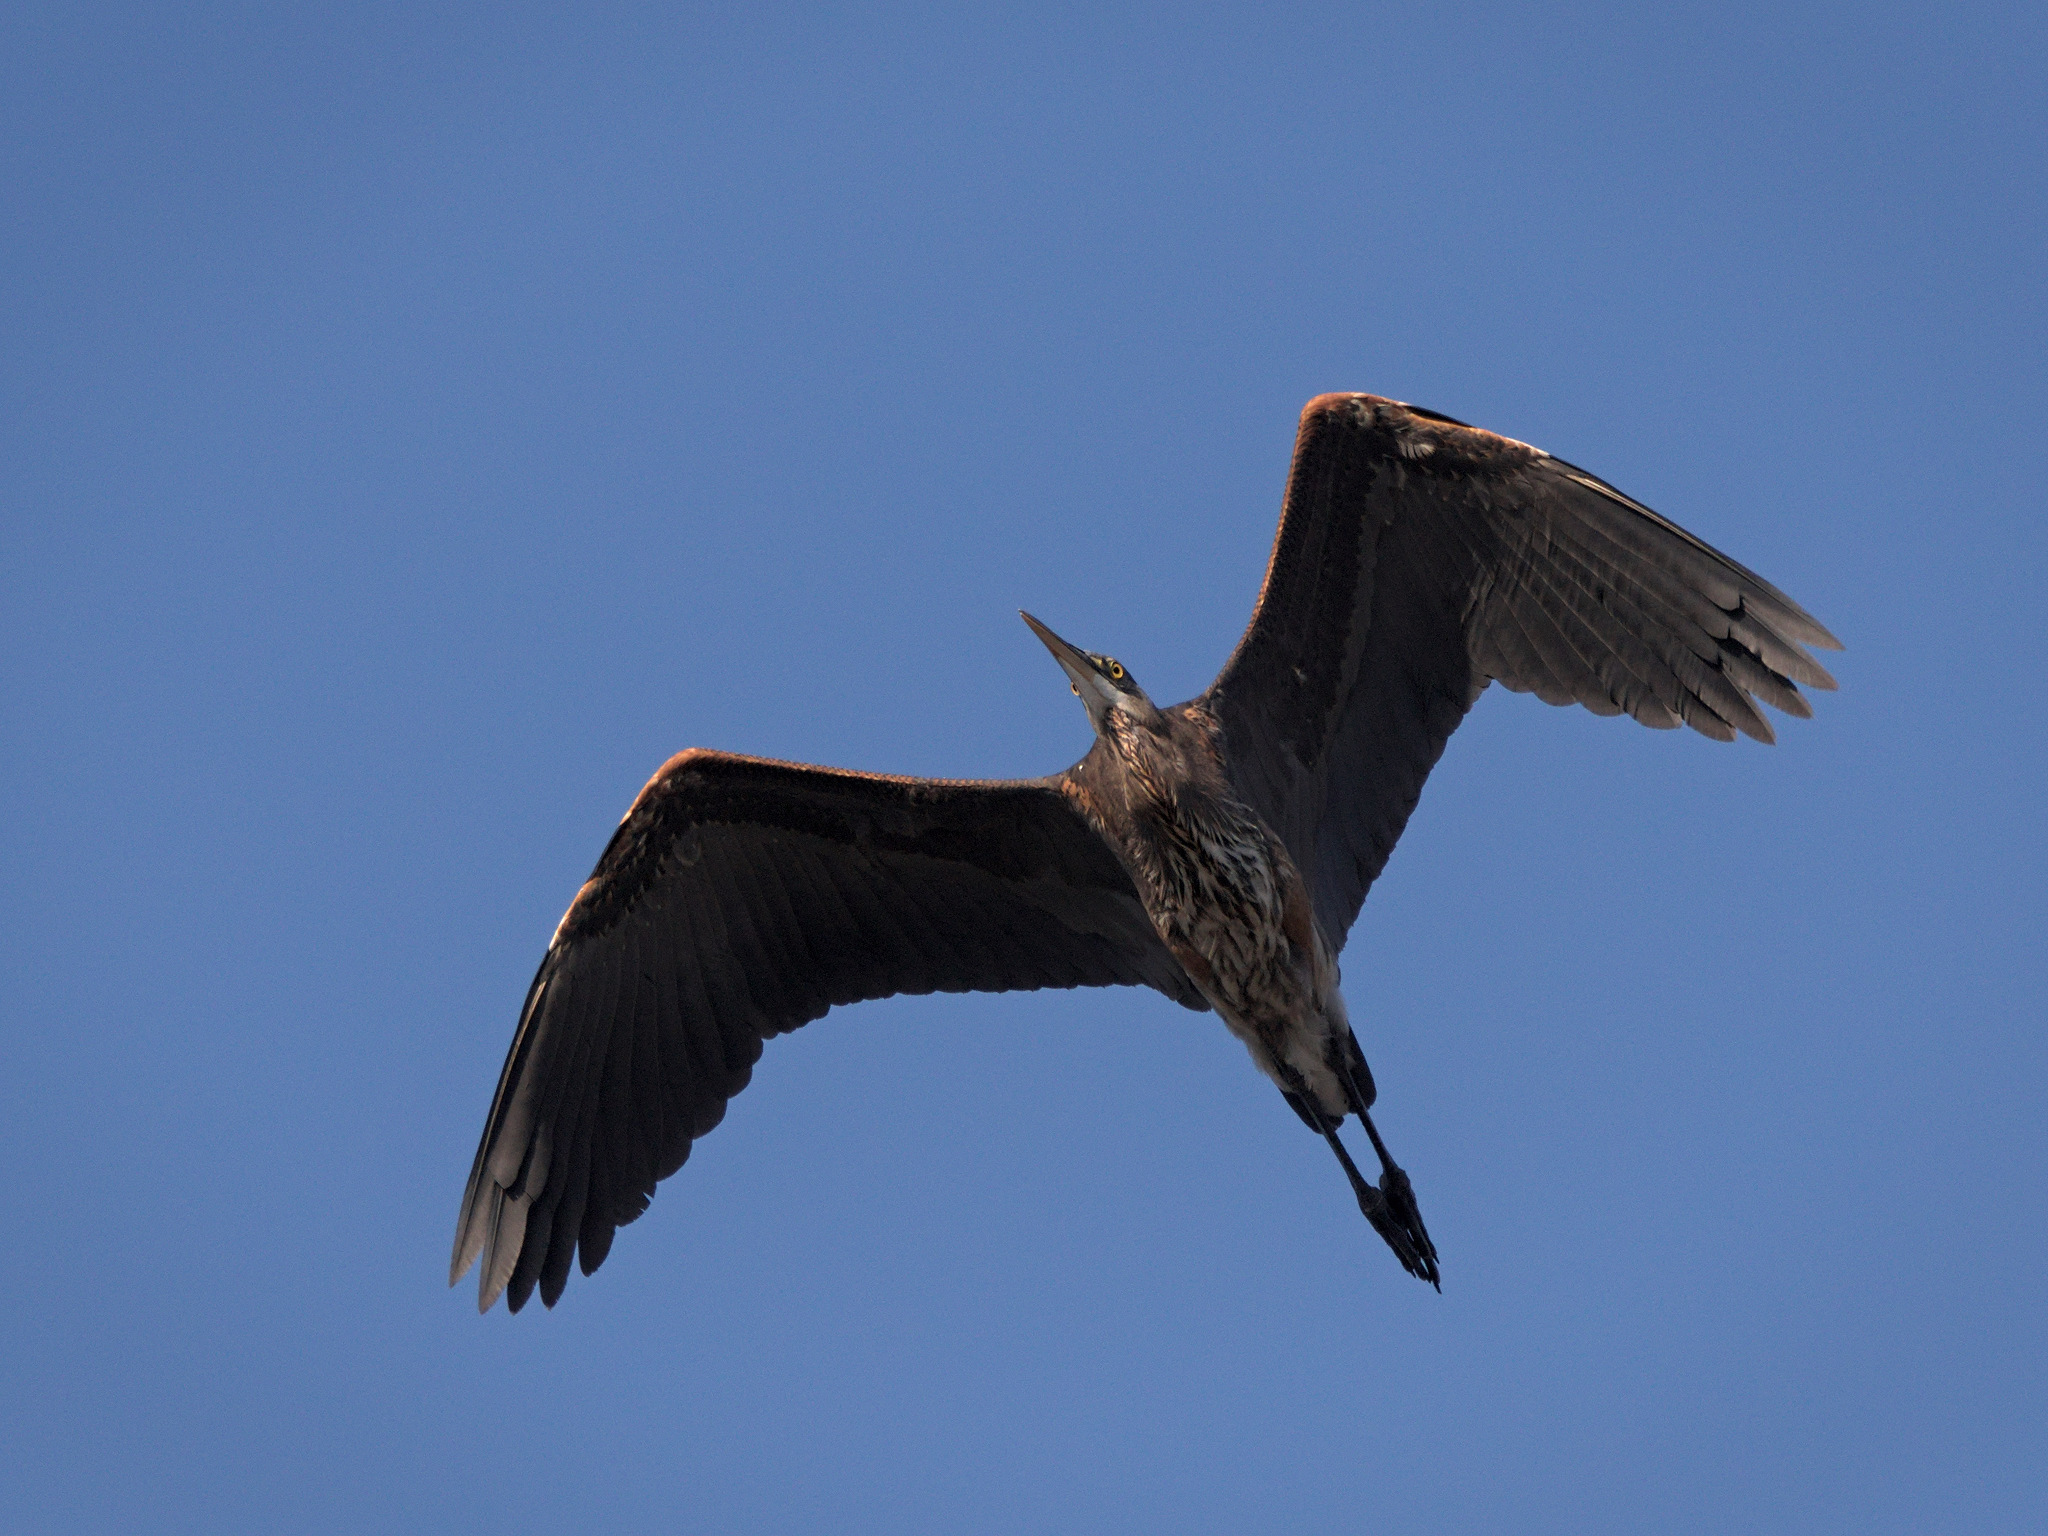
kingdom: Animalia
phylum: Chordata
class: Aves
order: Pelecaniformes
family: Ardeidae
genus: Ardea
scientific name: Ardea herodias
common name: Great blue heron
